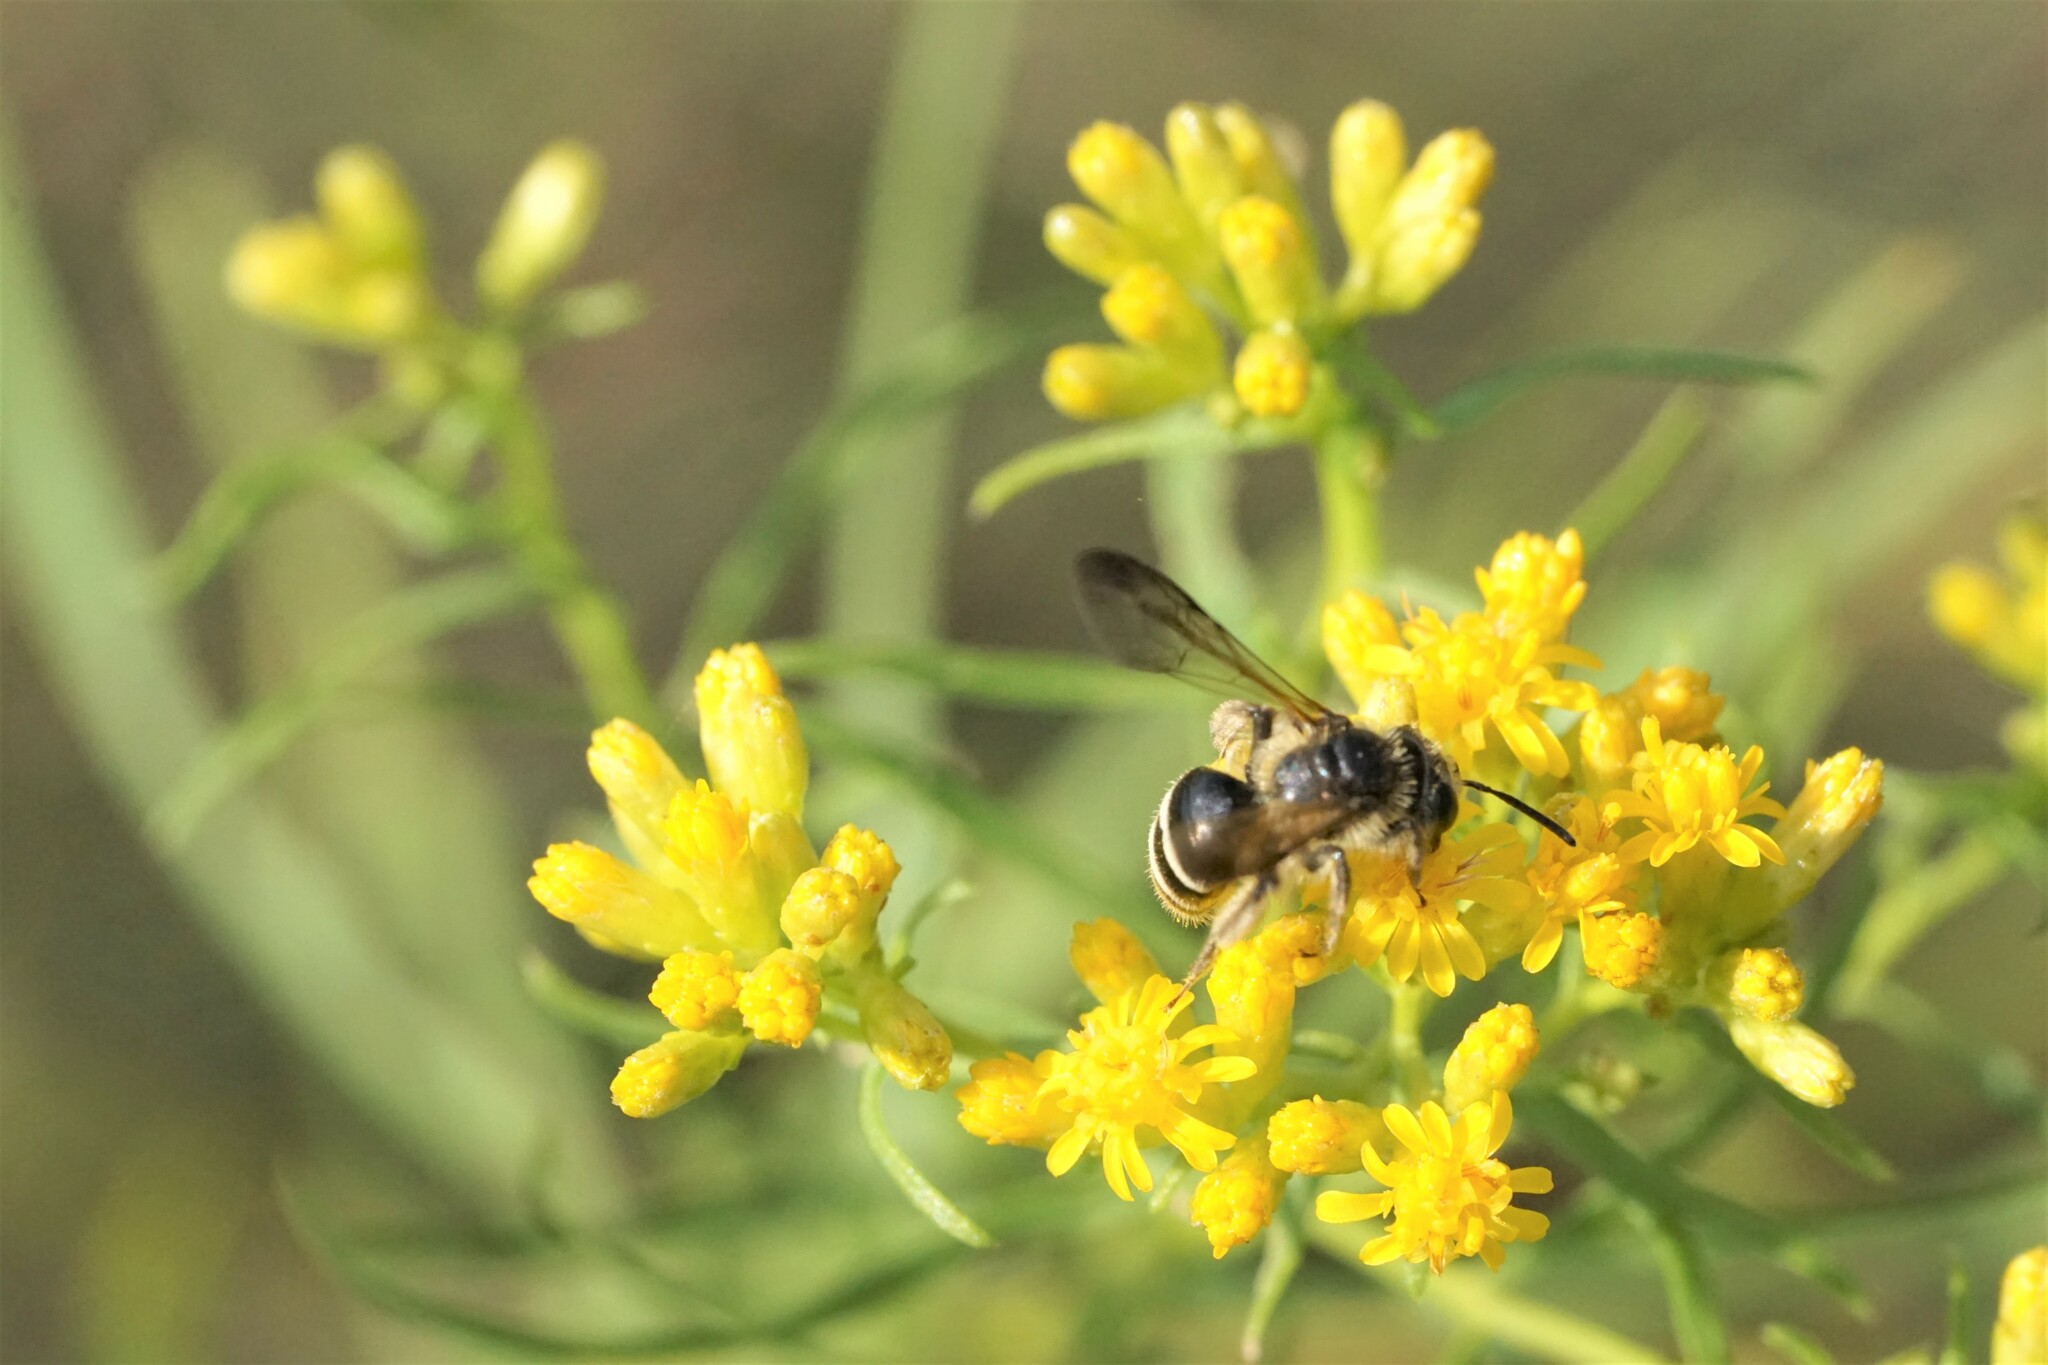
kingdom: Animalia
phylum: Arthropoda
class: Insecta
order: Hymenoptera
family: Andrenidae
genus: Andrena
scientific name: Andrena nubecula
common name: Cloudy-winged mining bee
